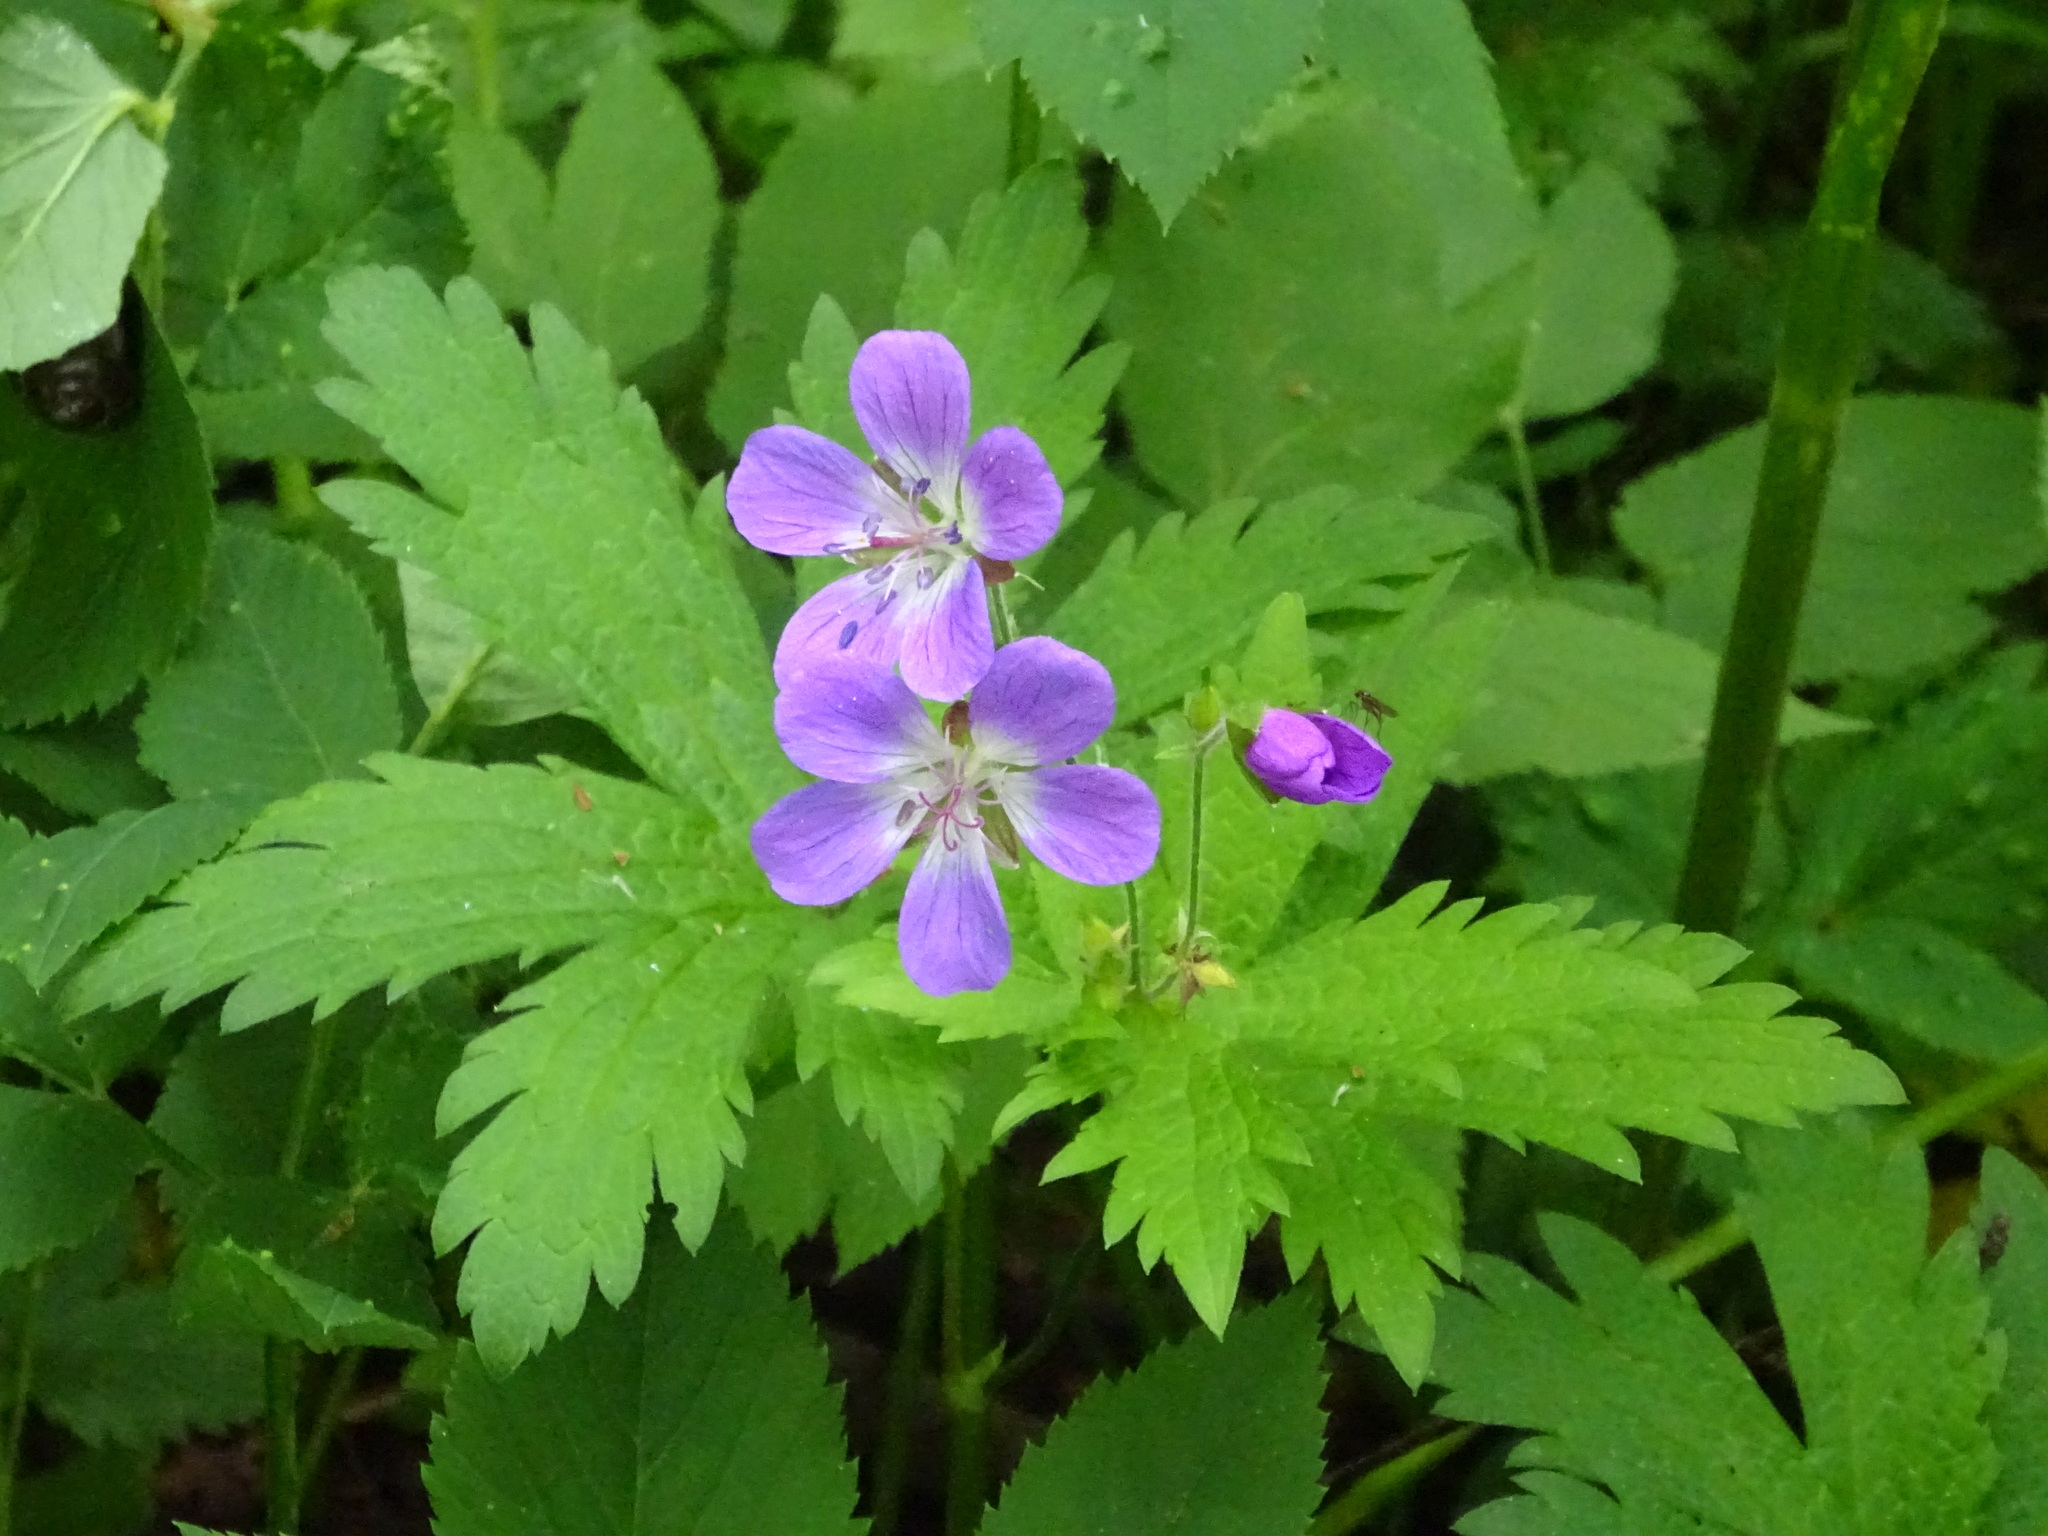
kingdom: Plantae
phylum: Tracheophyta
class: Magnoliopsida
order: Geraniales
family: Geraniaceae
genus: Geranium
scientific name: Geranium sylvaticum
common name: Wood crane's-bill
